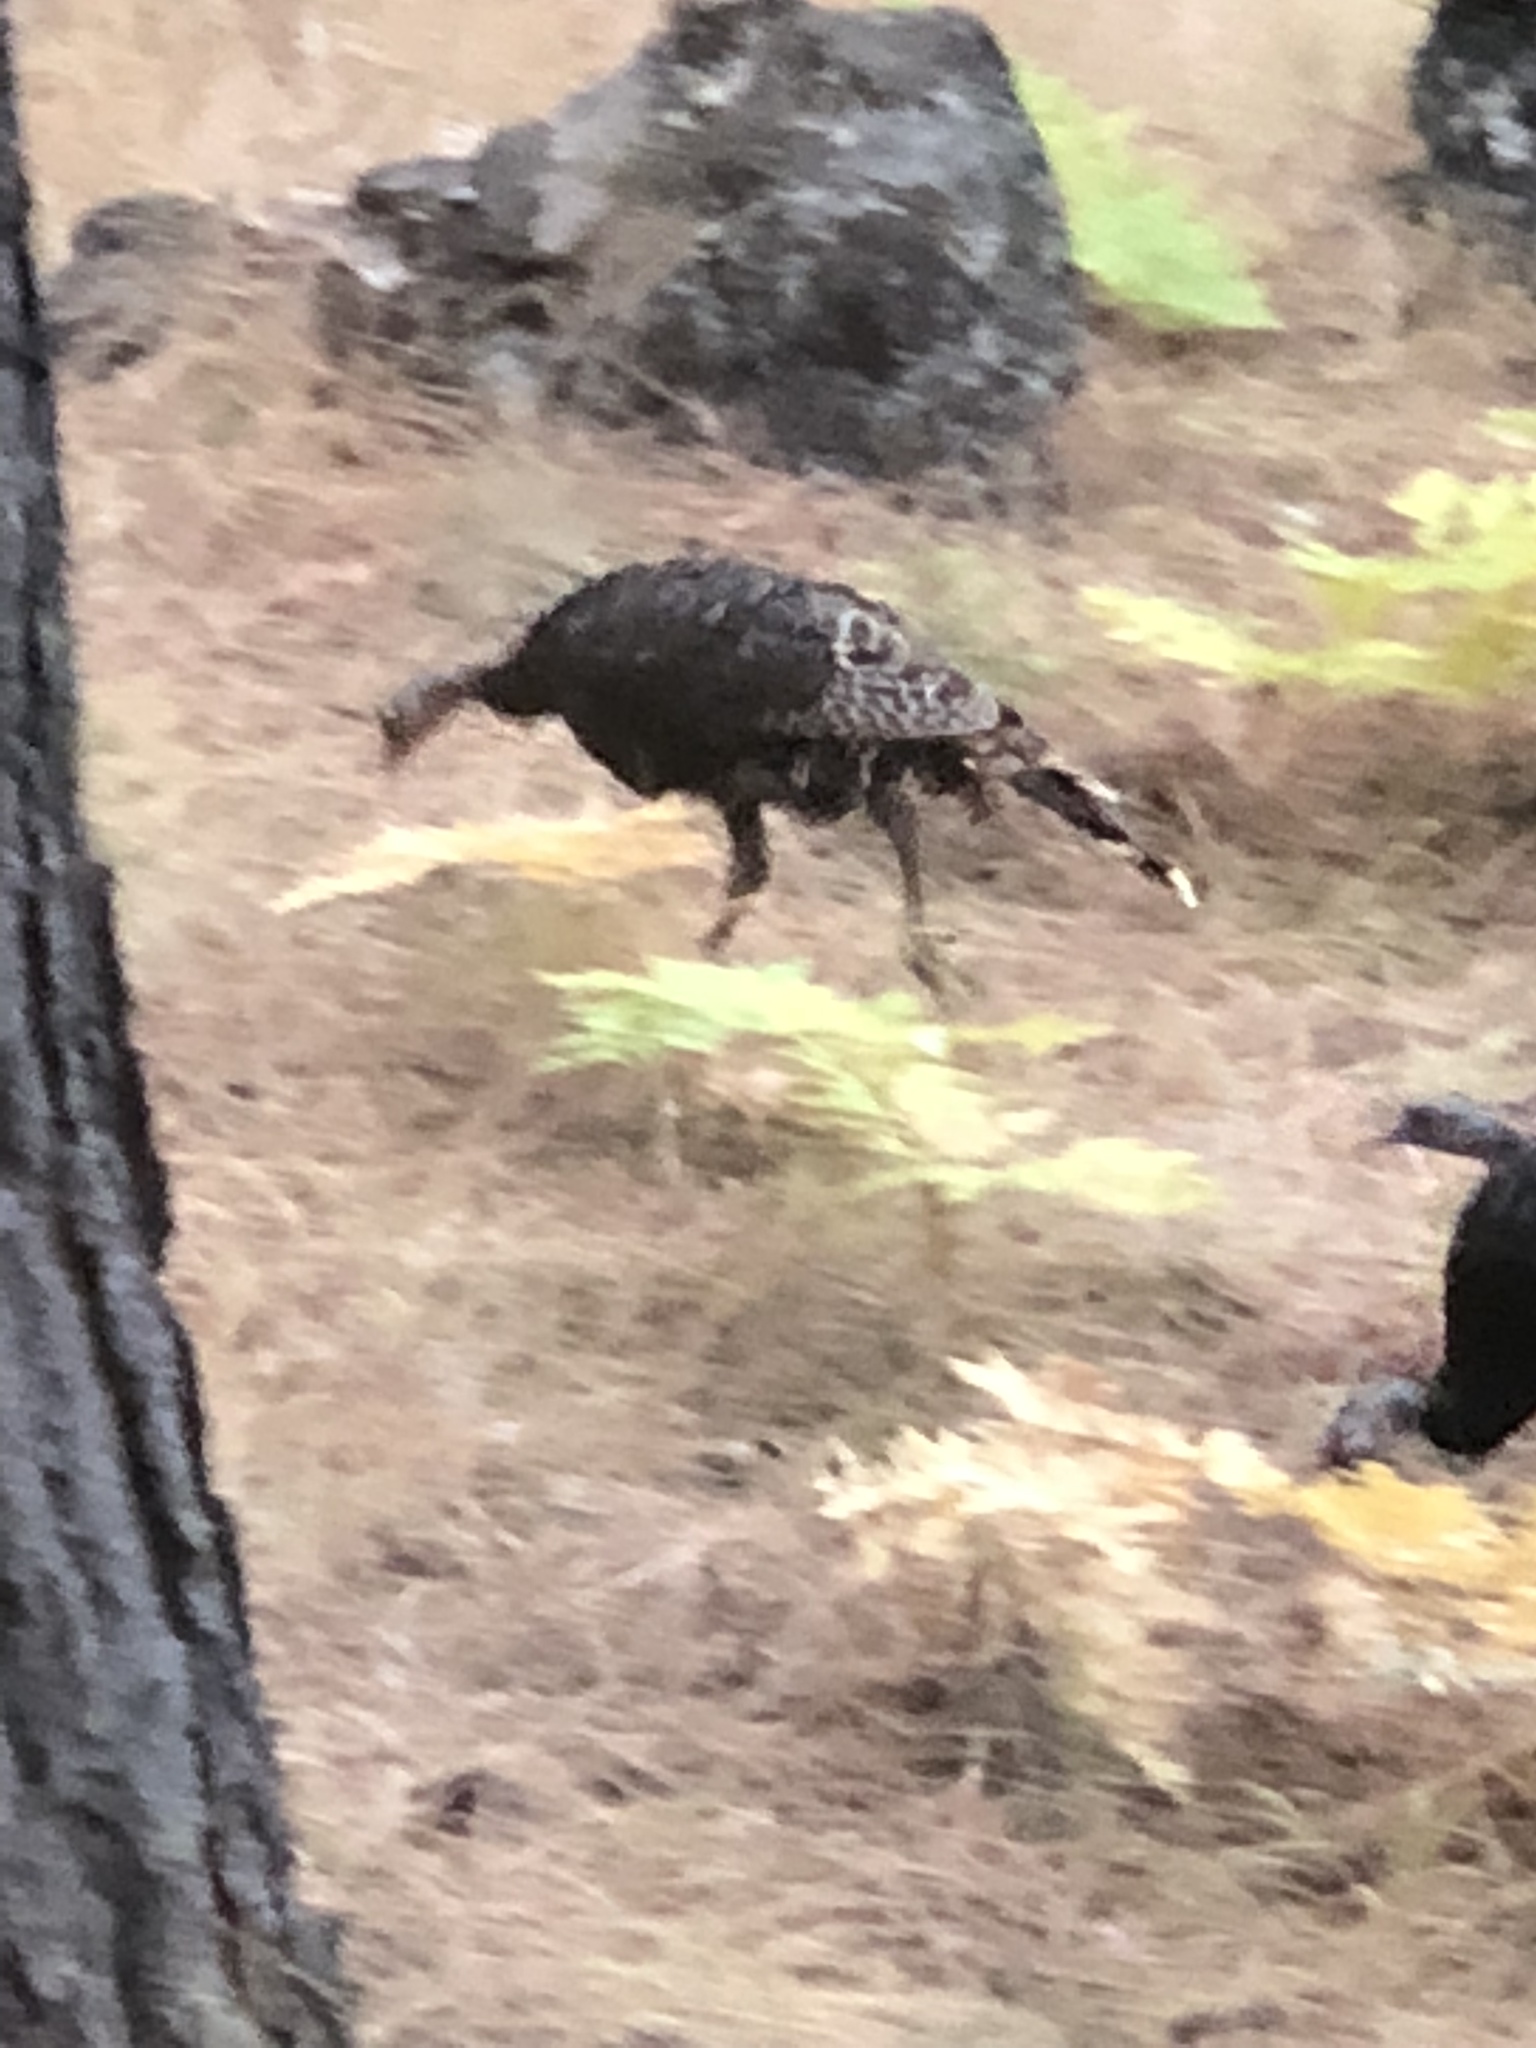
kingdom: Animalia
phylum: Chordata
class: Aves
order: Galliformes
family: Phasianidae
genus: Meleagris
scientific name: Meleagris gallopavo
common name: Wild turkey
